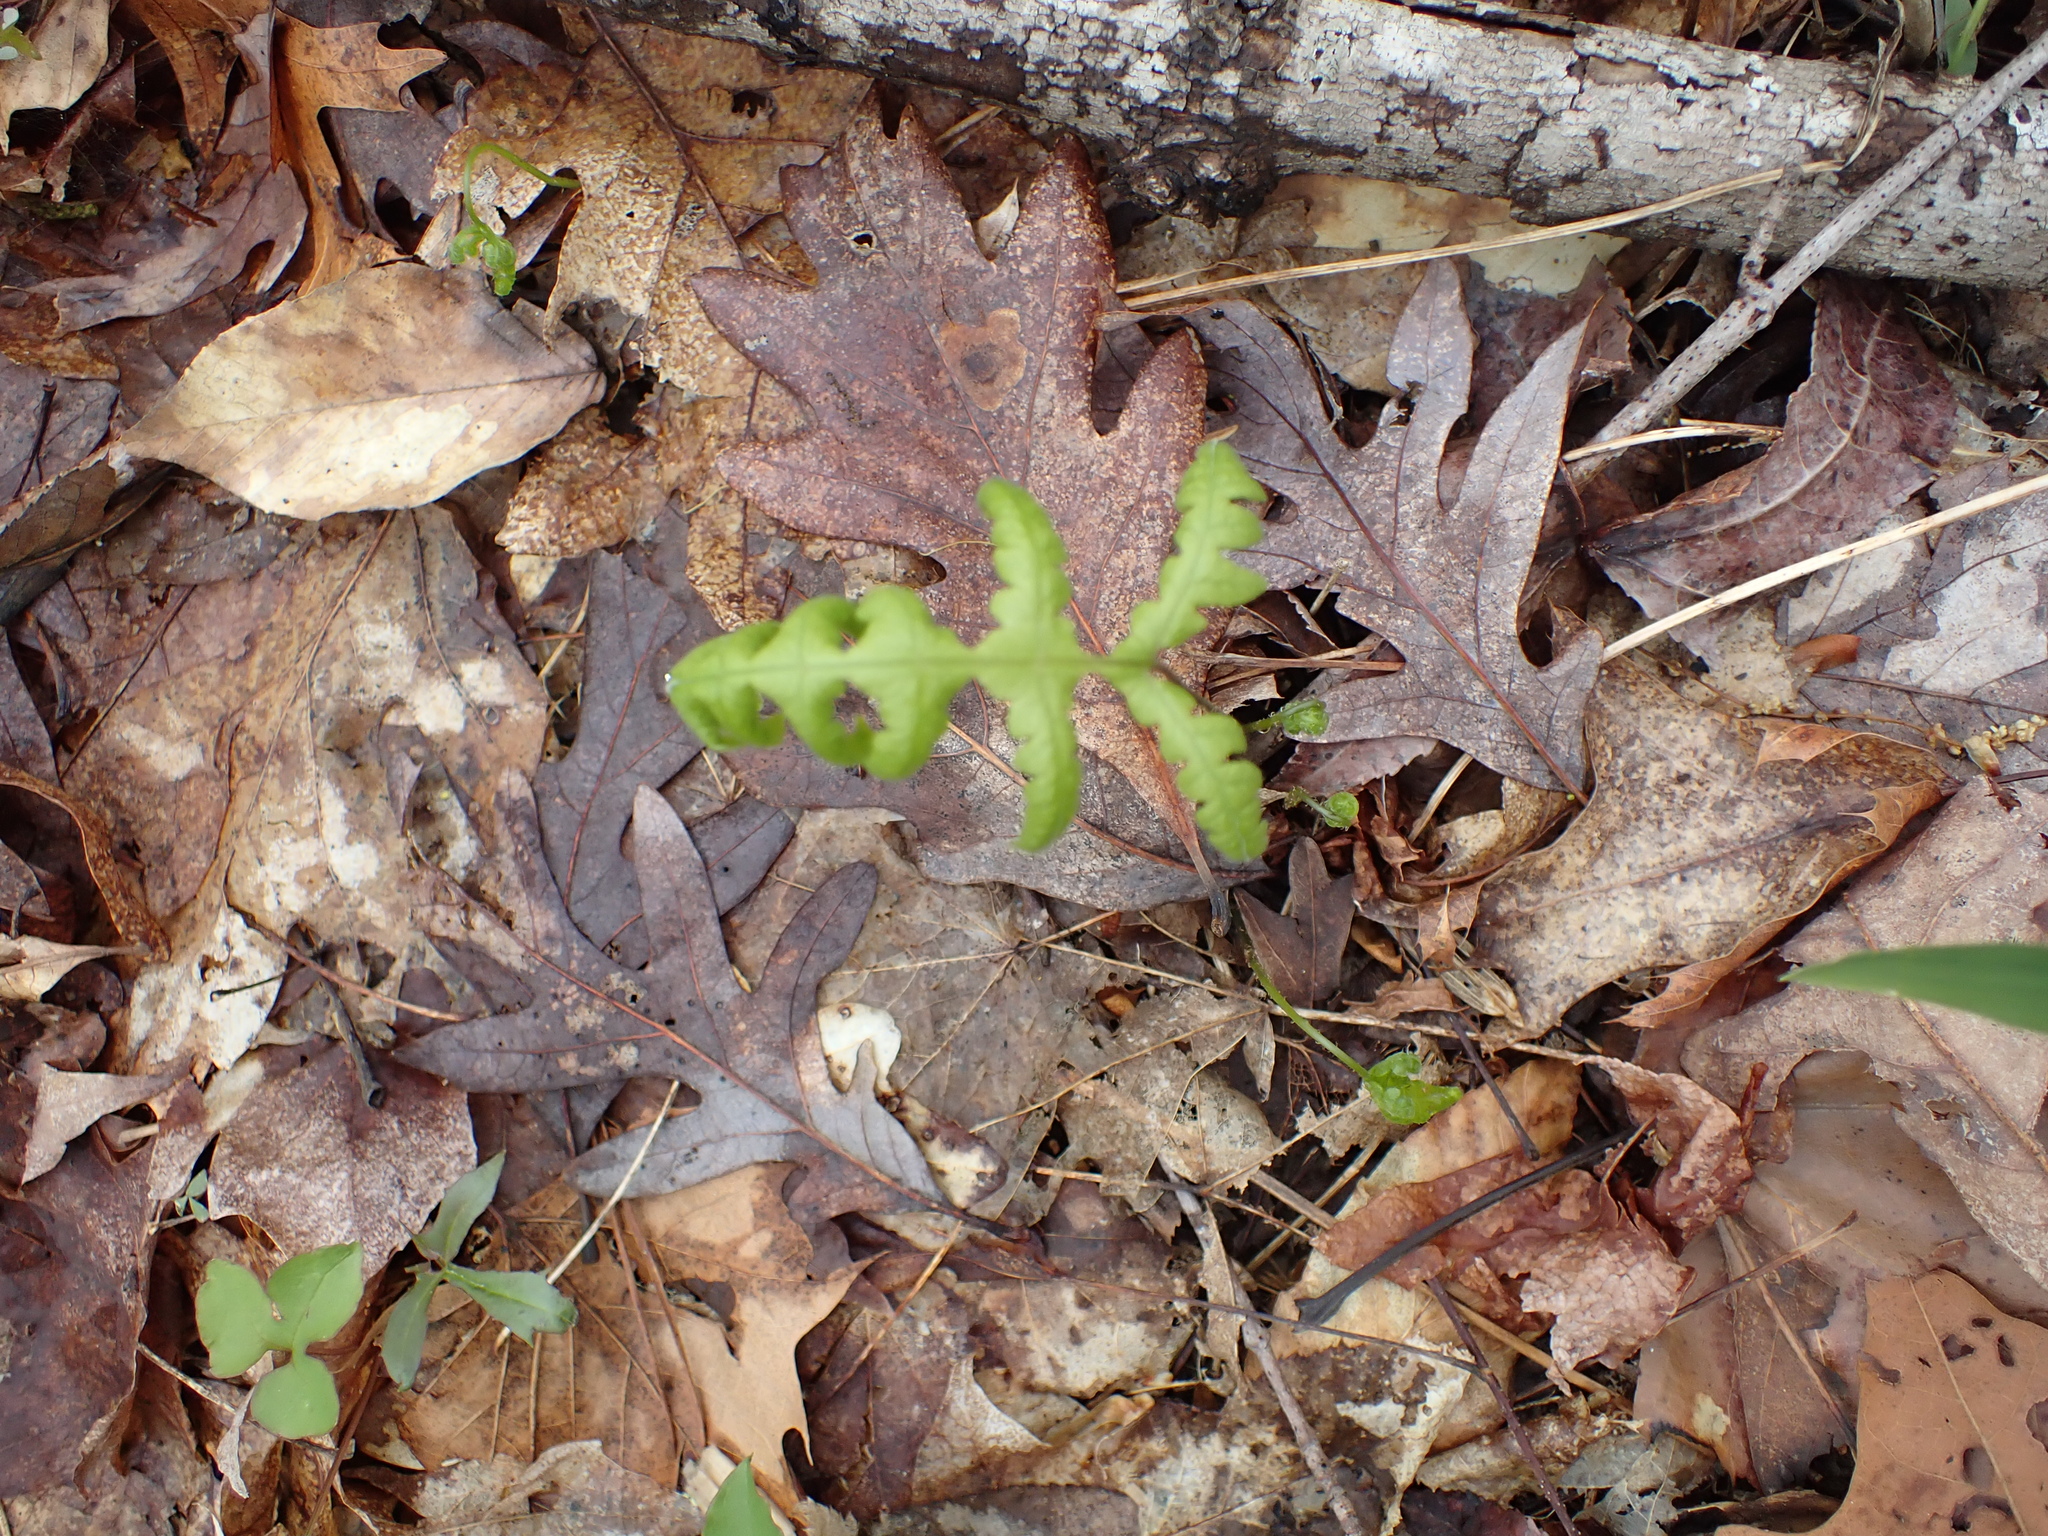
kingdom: Plantae
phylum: Tracheophyta
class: Polypodiopsida
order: Polypodiales
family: Thelypteridaceae
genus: Phegopteris
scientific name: Phegopteris hexagonoptera
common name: Broad beech fern
